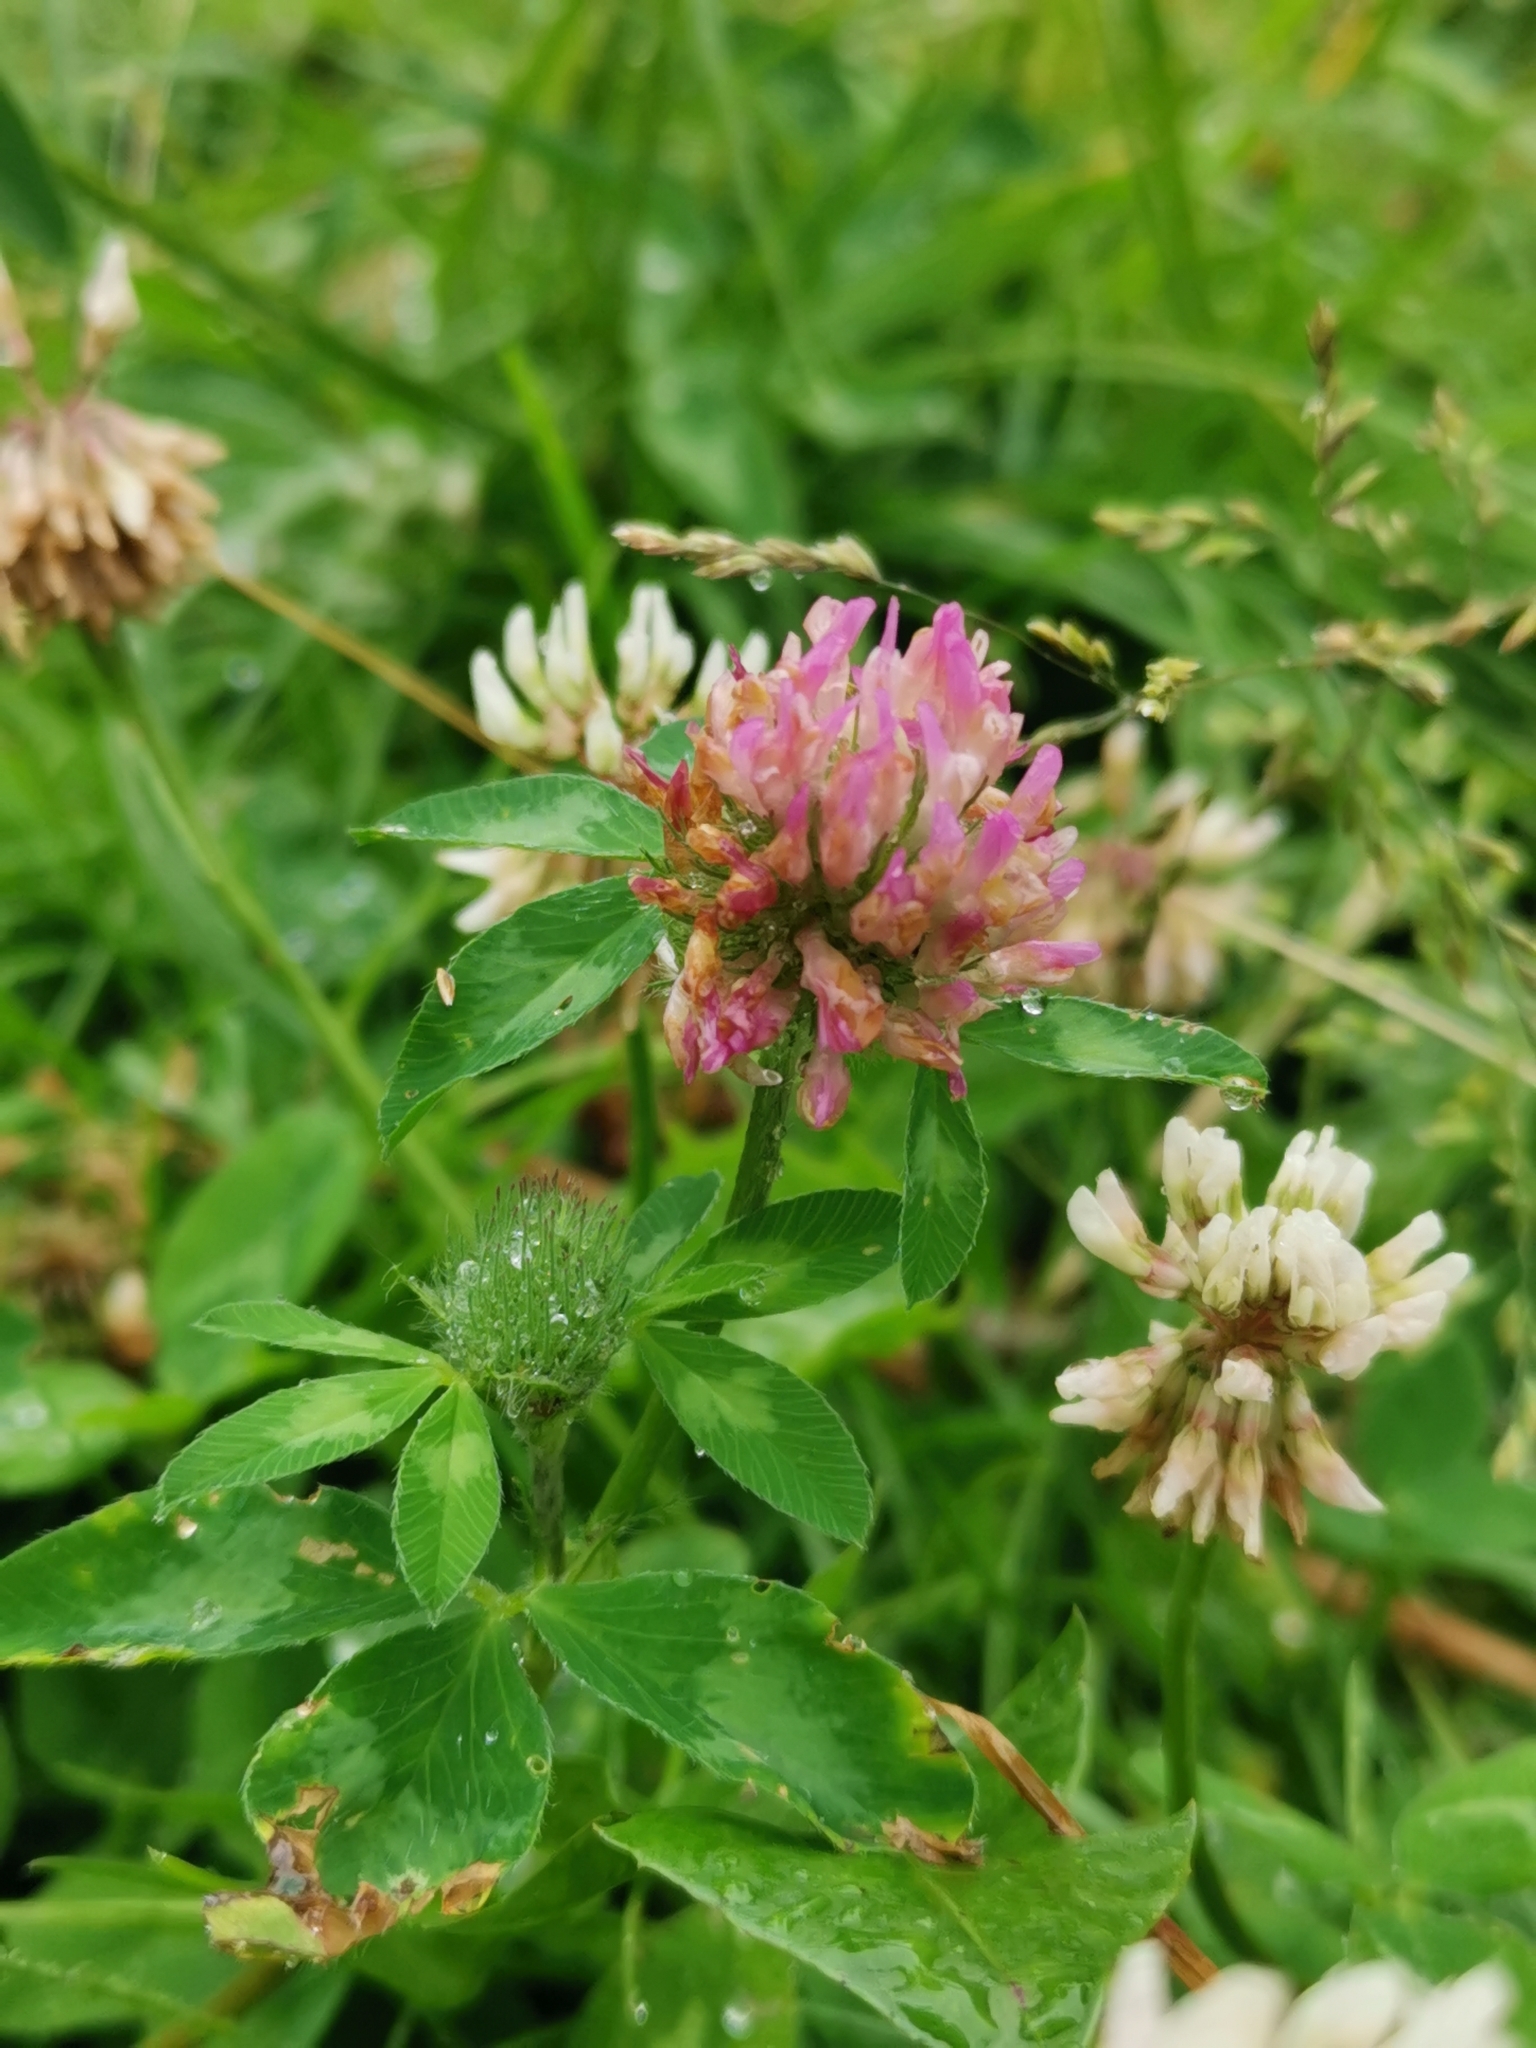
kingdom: Plantae
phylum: Tracheophyta
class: Magnoliopsida
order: Fabales
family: Fabaceae
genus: Trifolium
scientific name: Trifolium pratense
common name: Red clover
